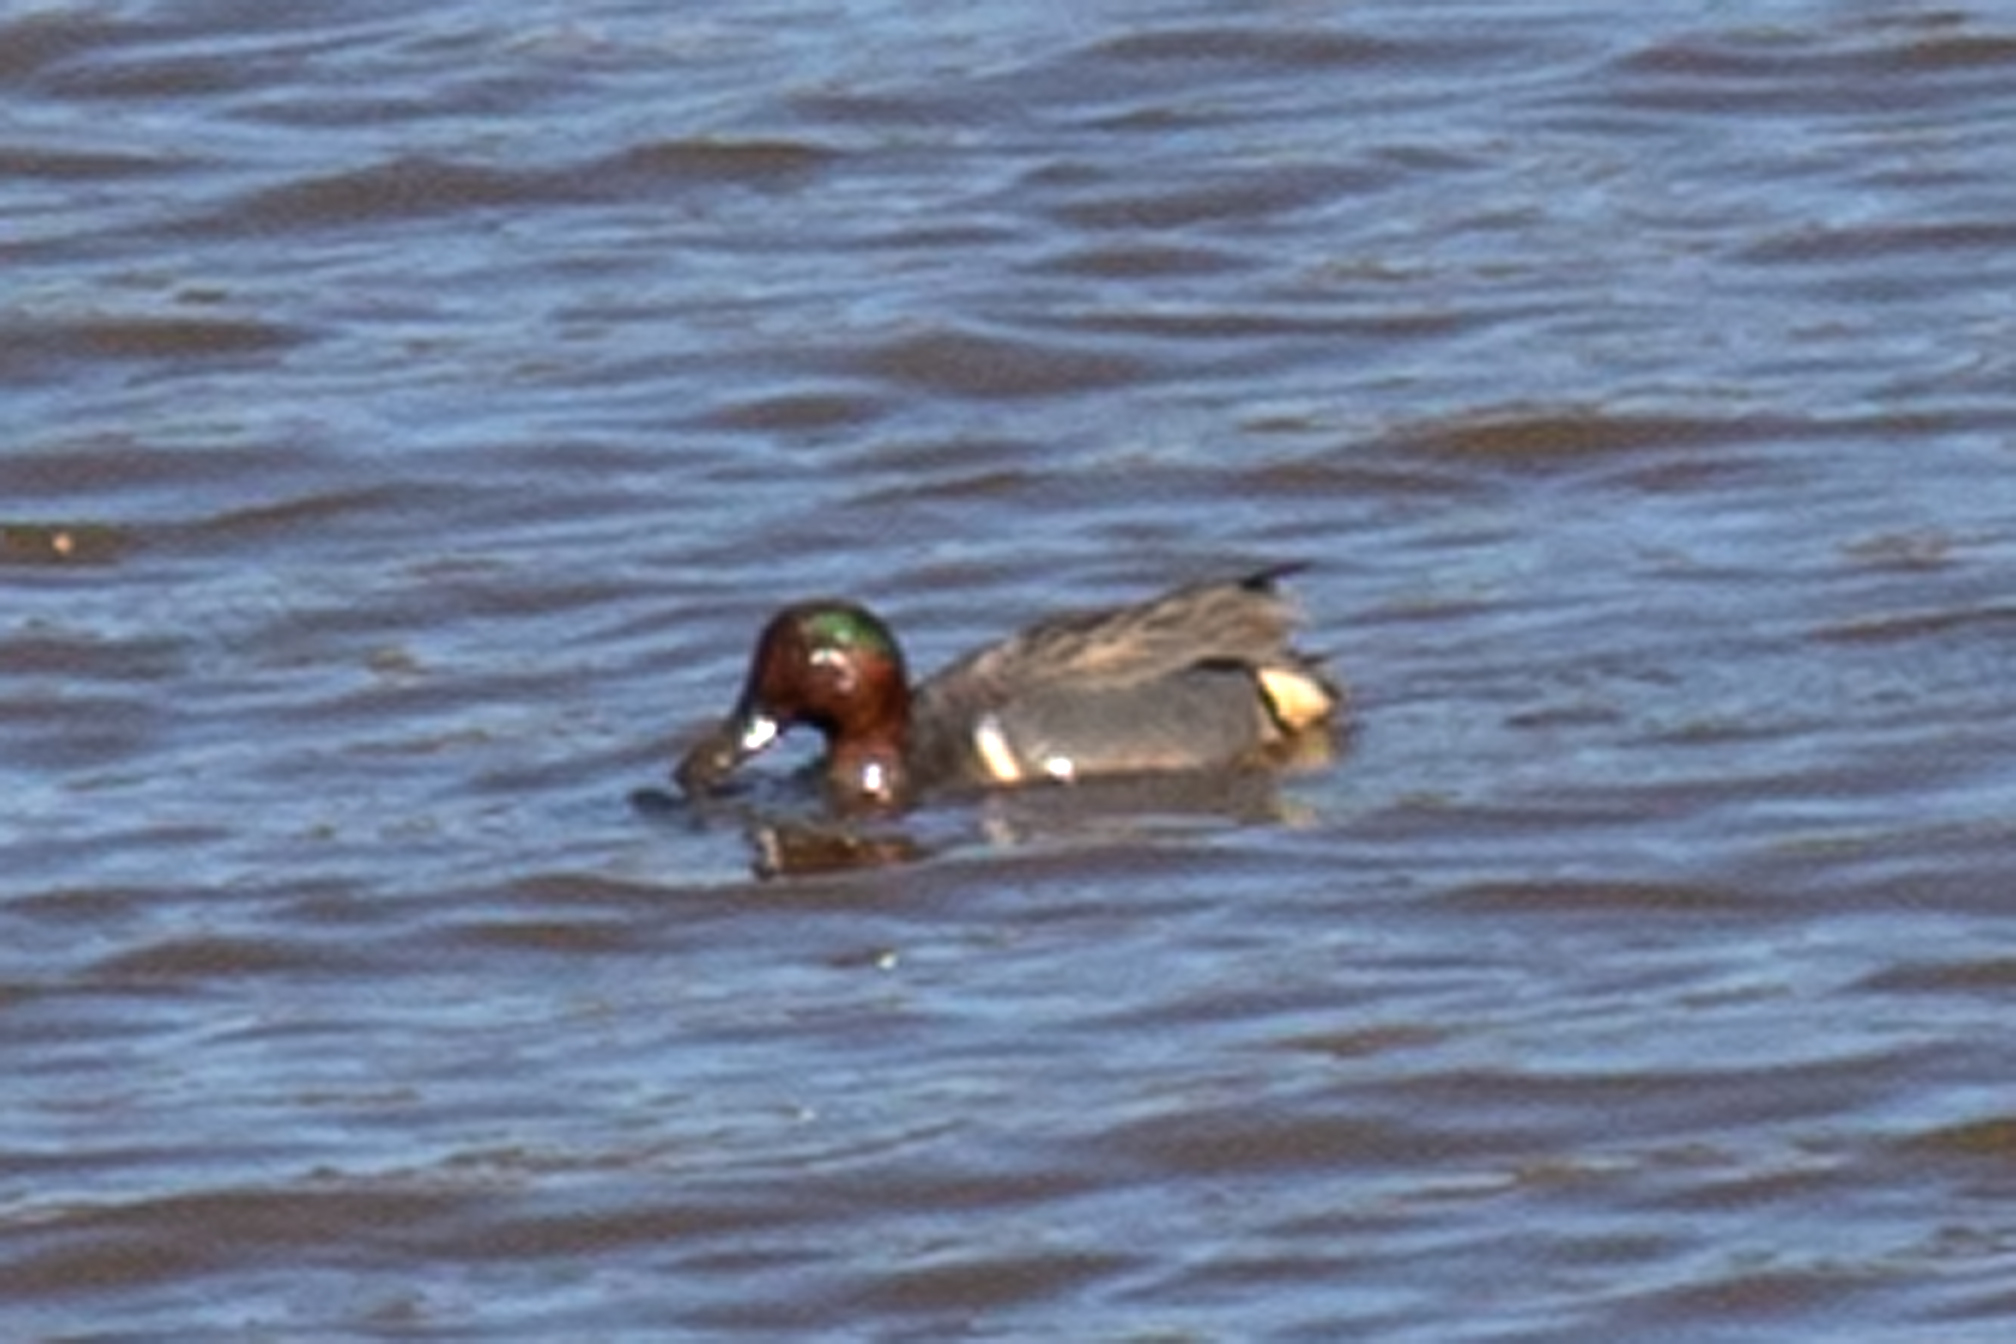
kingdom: Animalia
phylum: Chordata
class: Aves
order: Anseriformes
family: Anatidae
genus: Anas
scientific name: Anas crecca
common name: Eurasian teal
